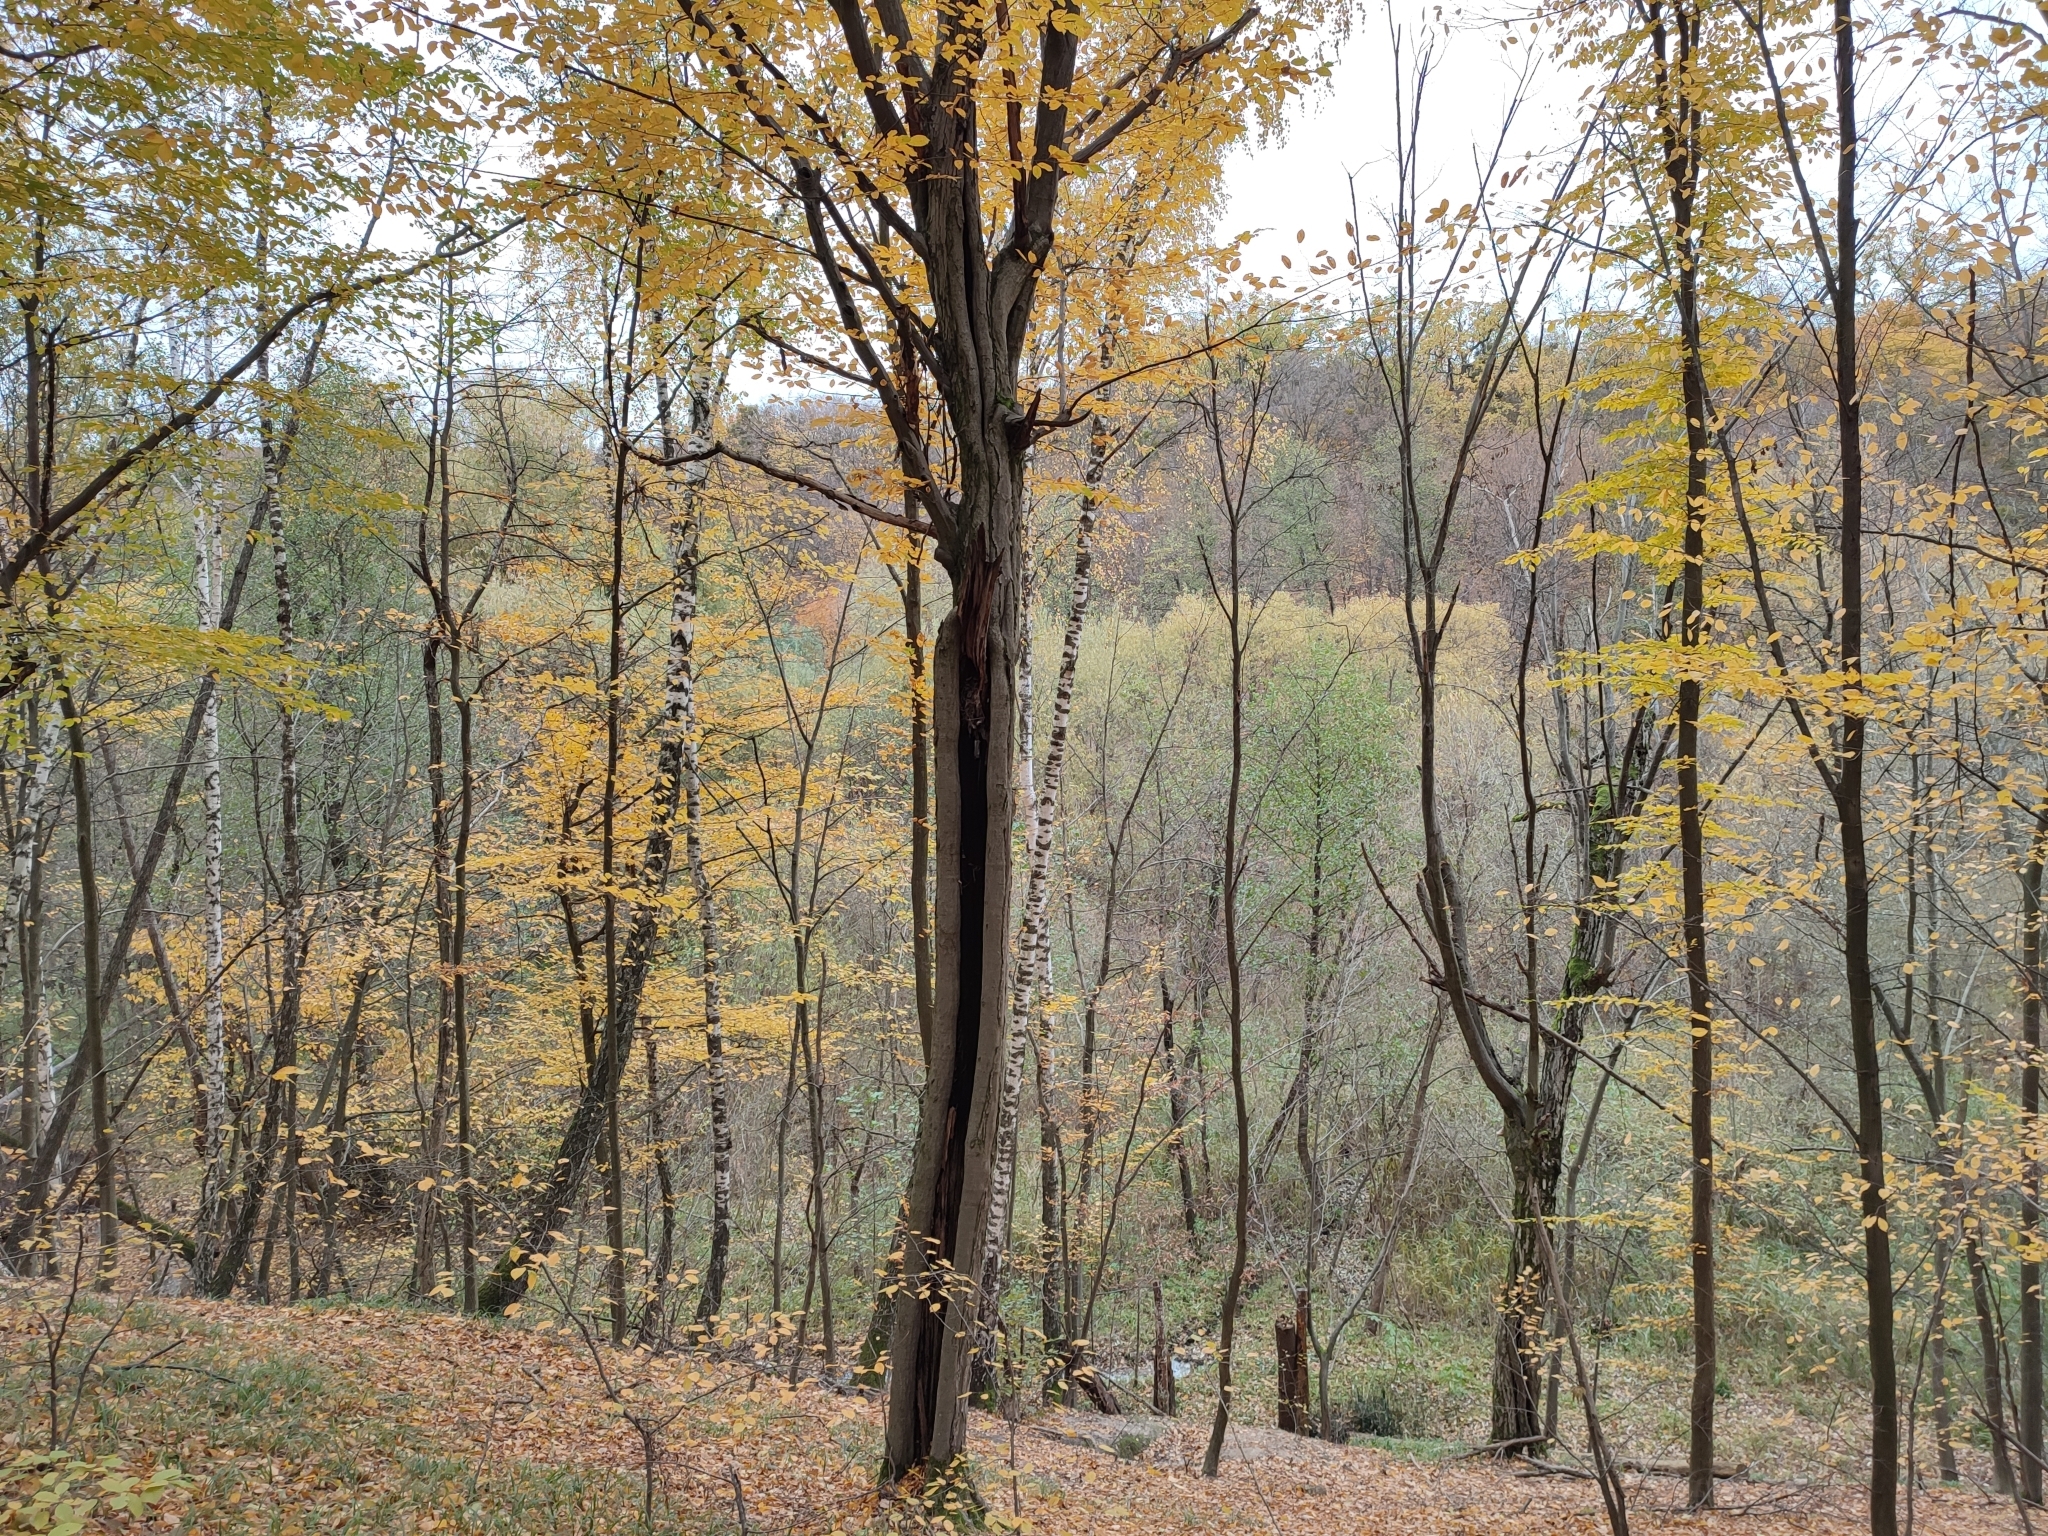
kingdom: Plantae
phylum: Tracheophyta
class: Magnoliopsida
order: Fagales
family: Betulaceae
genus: Carpinus
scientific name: Carpinus betulus
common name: Hornbeam
